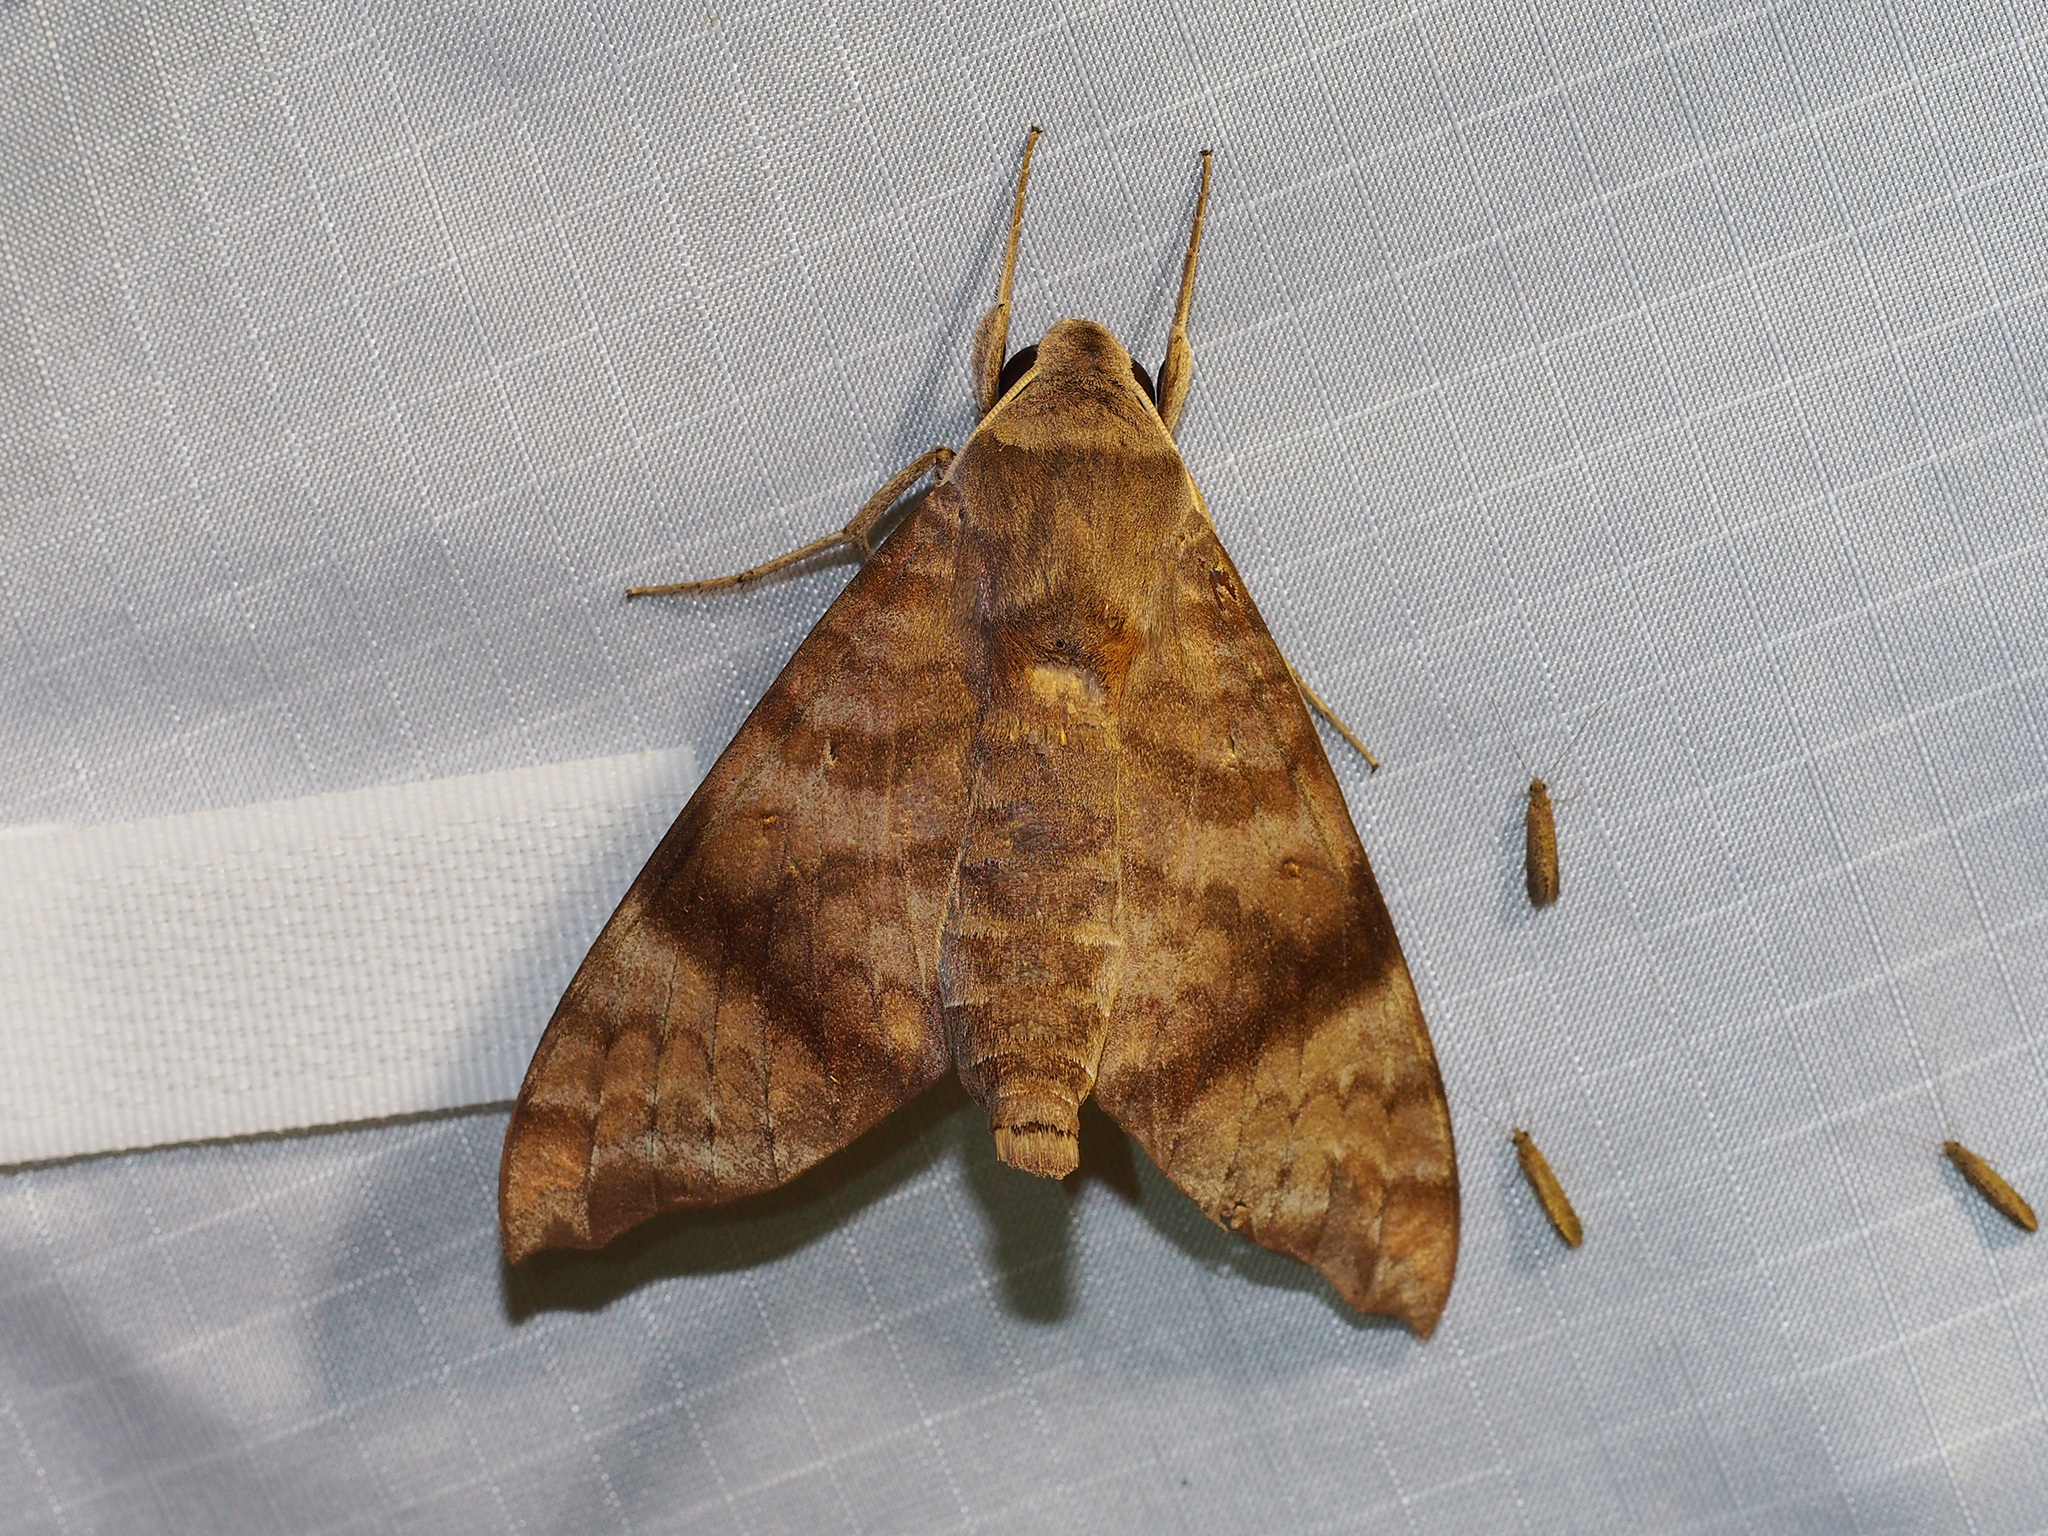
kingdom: Animalia
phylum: Arthropoda
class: Insecta
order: Lepidoptera
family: Sphingidae
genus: Acosmeryx
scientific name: Acosmeryx shervillii
